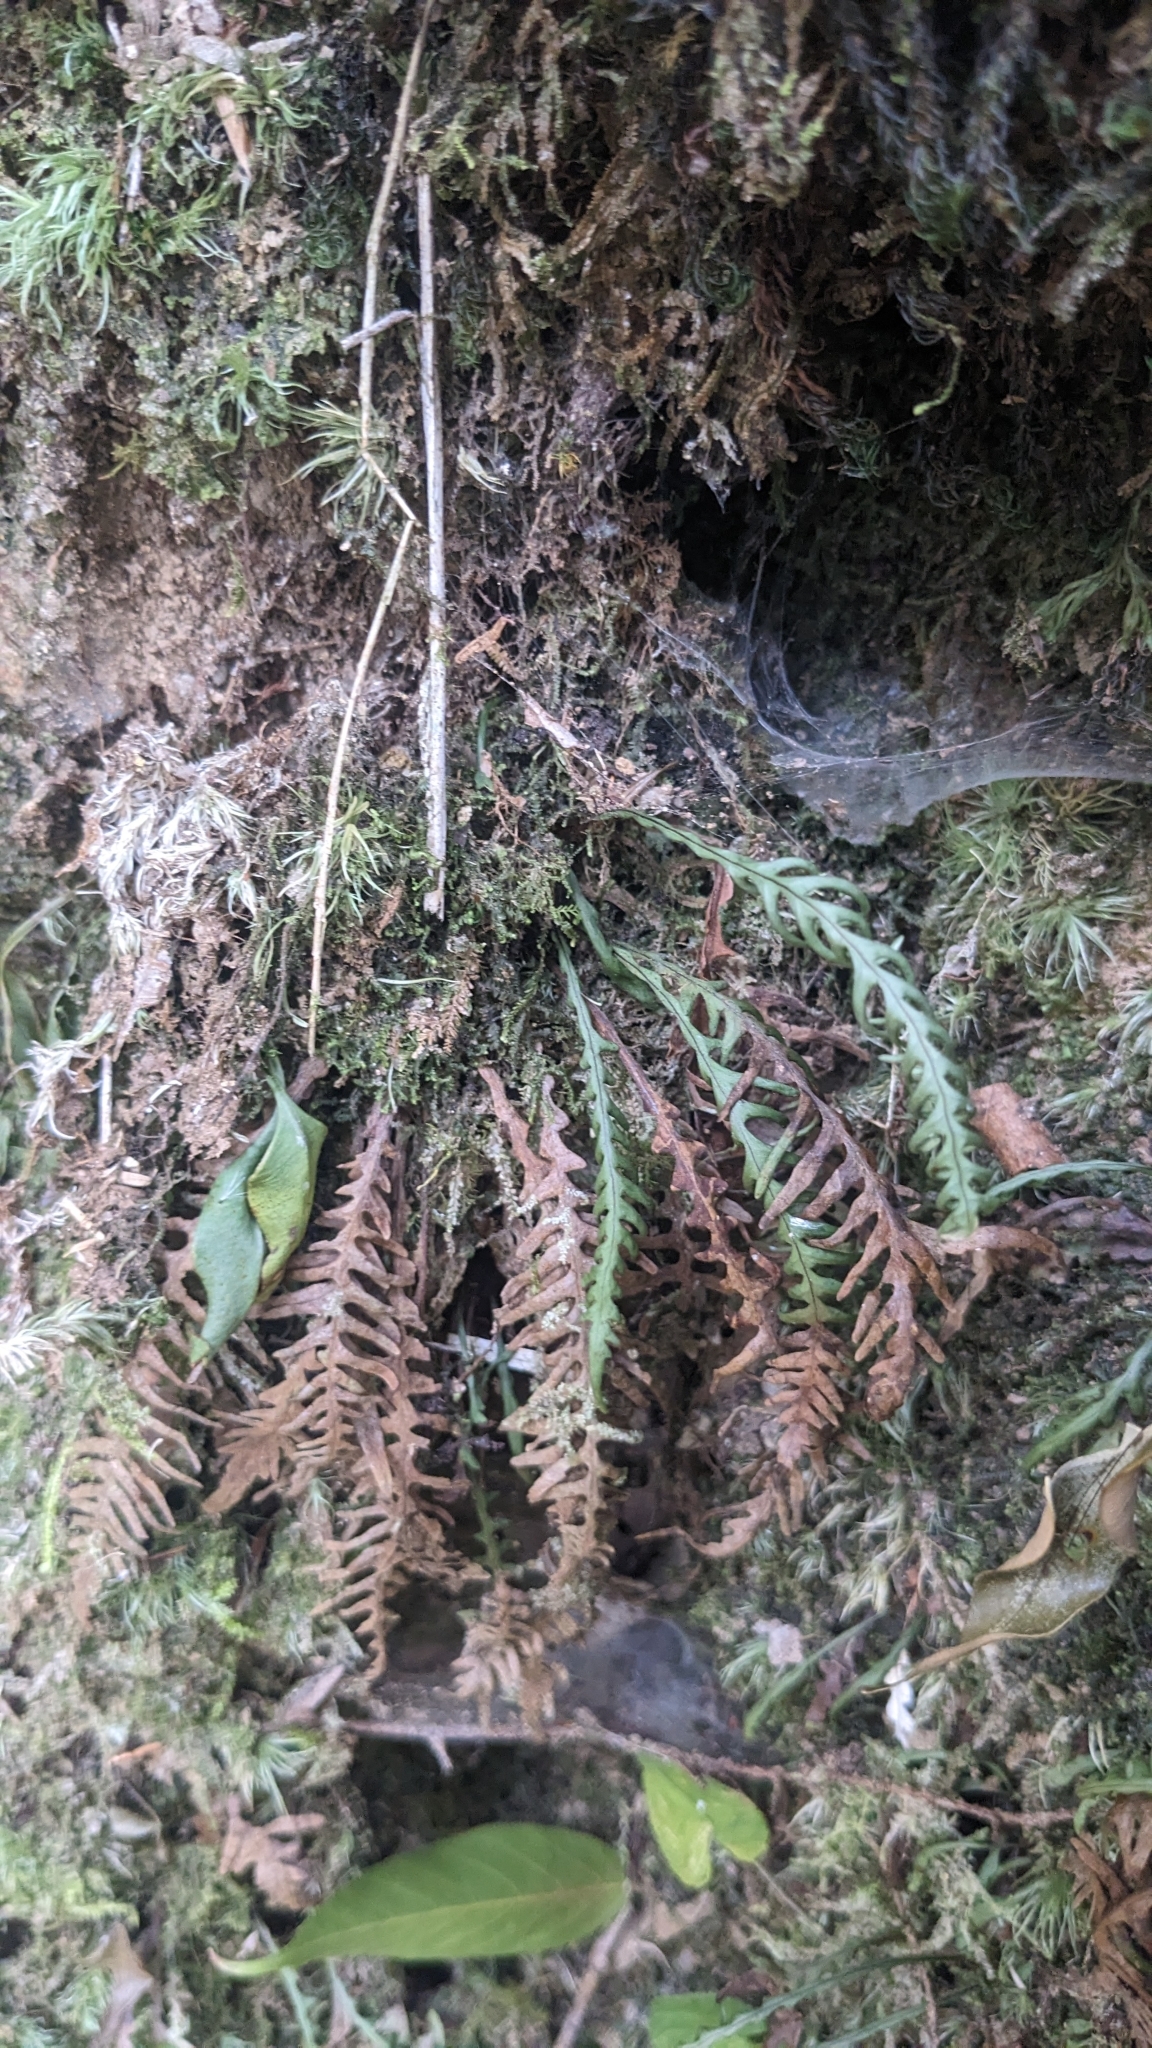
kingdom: Plantae
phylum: Tracheophyta
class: Polypodiopsida
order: Polypodiales
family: Polypodiaceae
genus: Oreogrammitis
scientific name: Oreogrammitis curtisii
